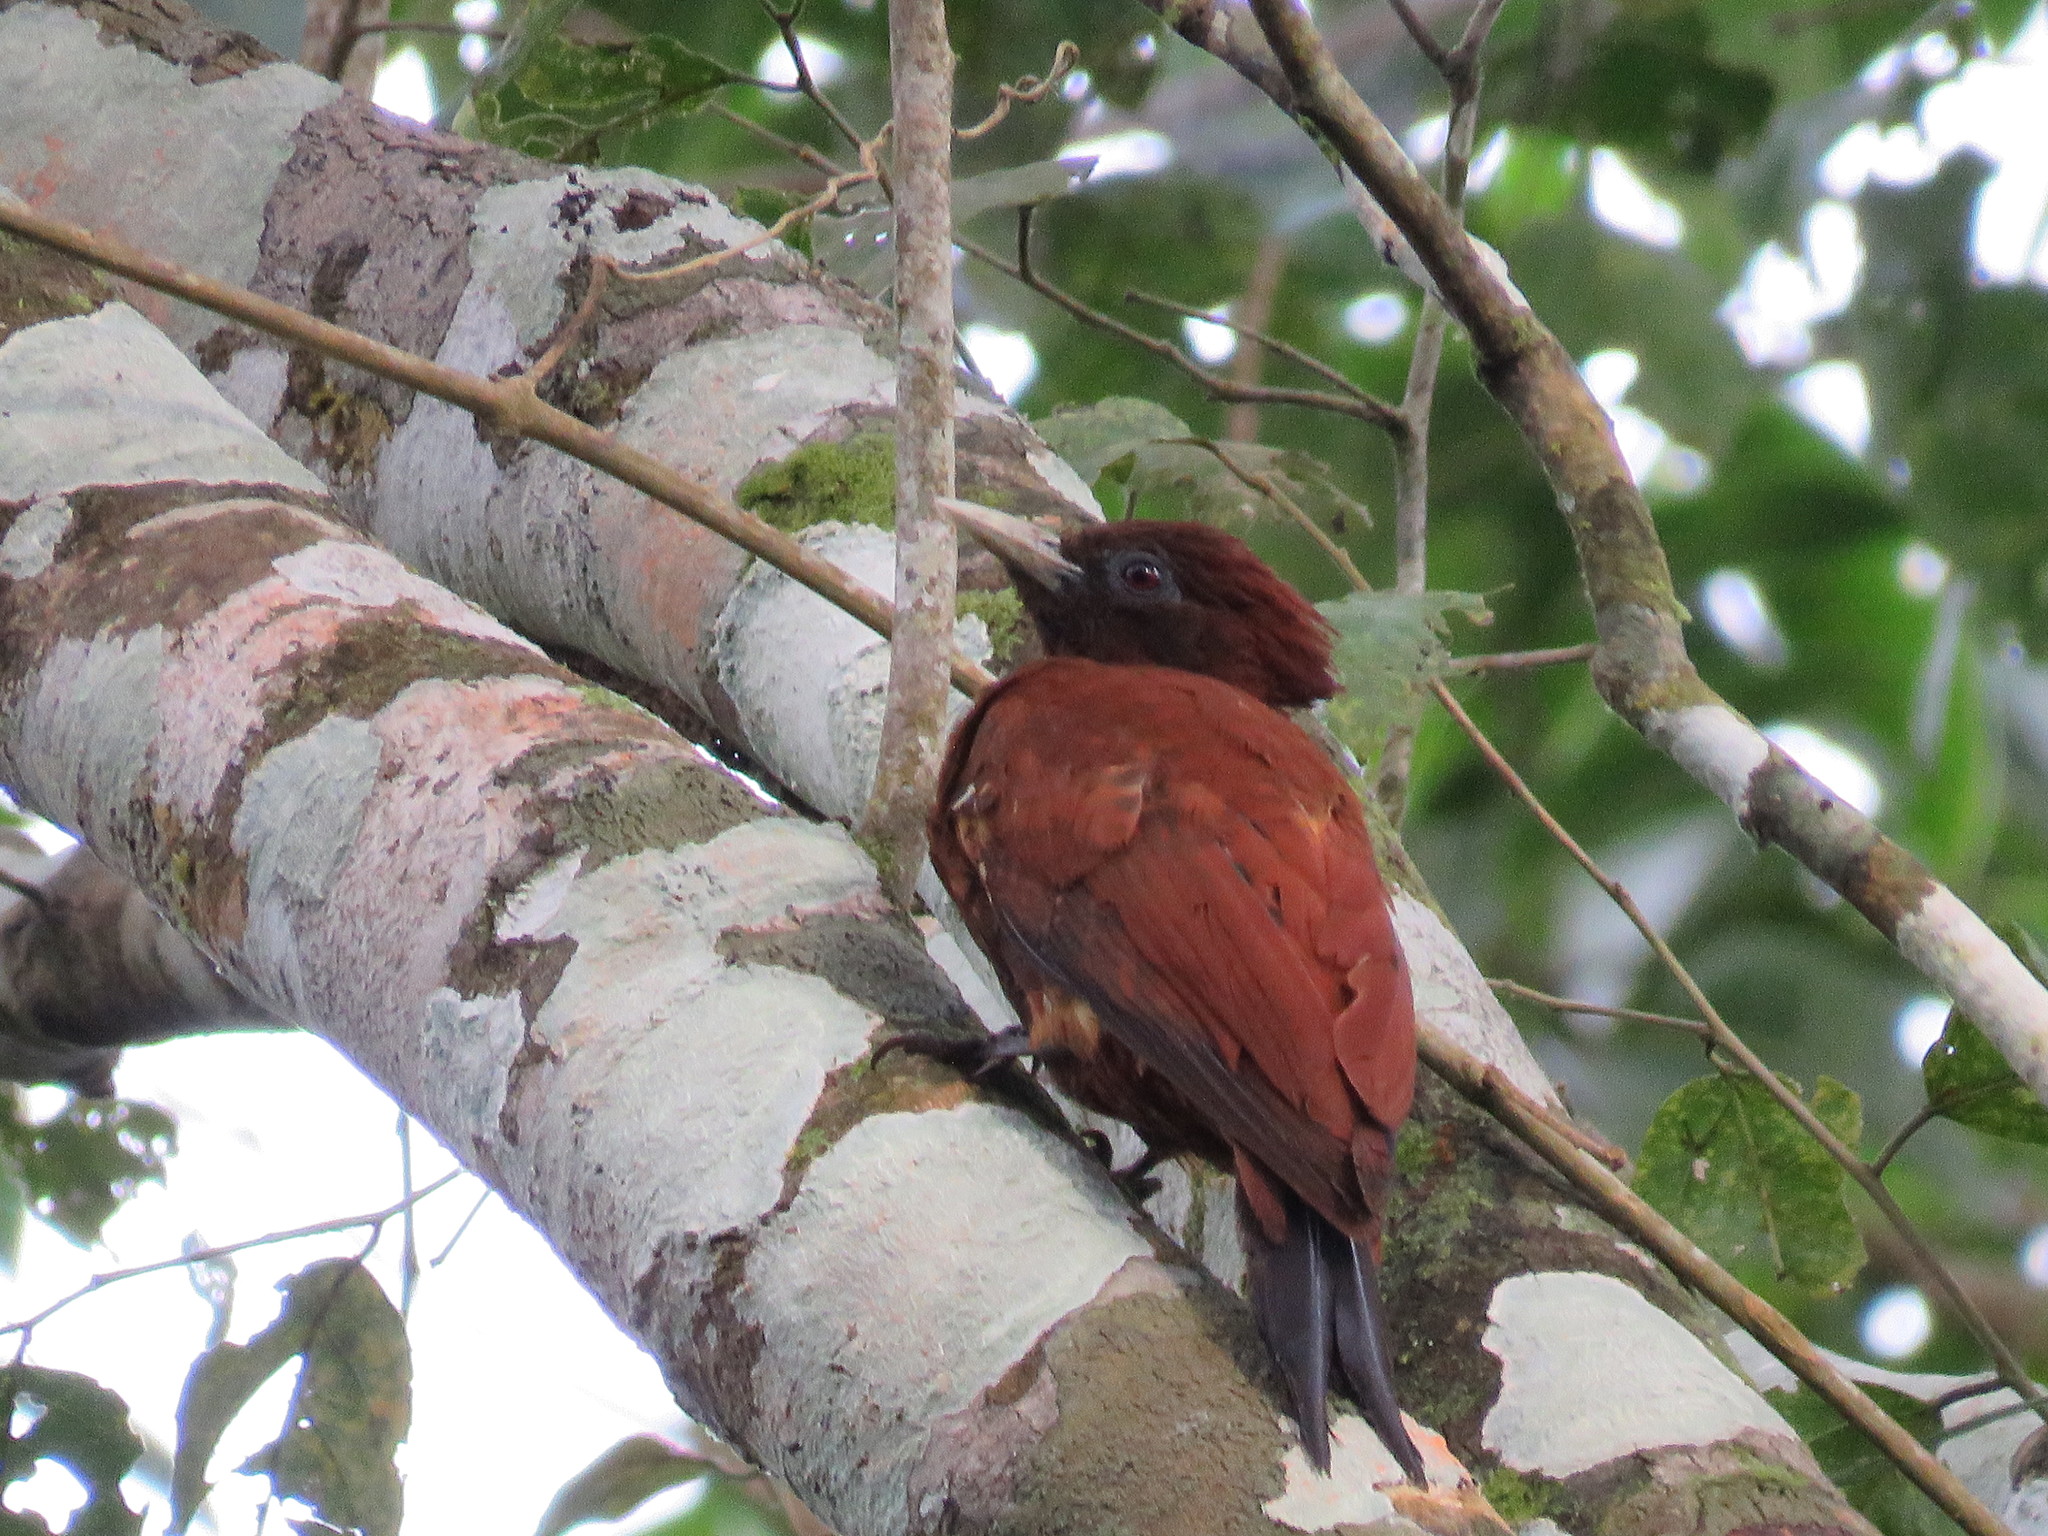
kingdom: Animalia
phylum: Chordata
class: Aves
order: Piciformes
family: Picidae
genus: Celeus
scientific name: Celeus elegans
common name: Chestnut woodpecker
